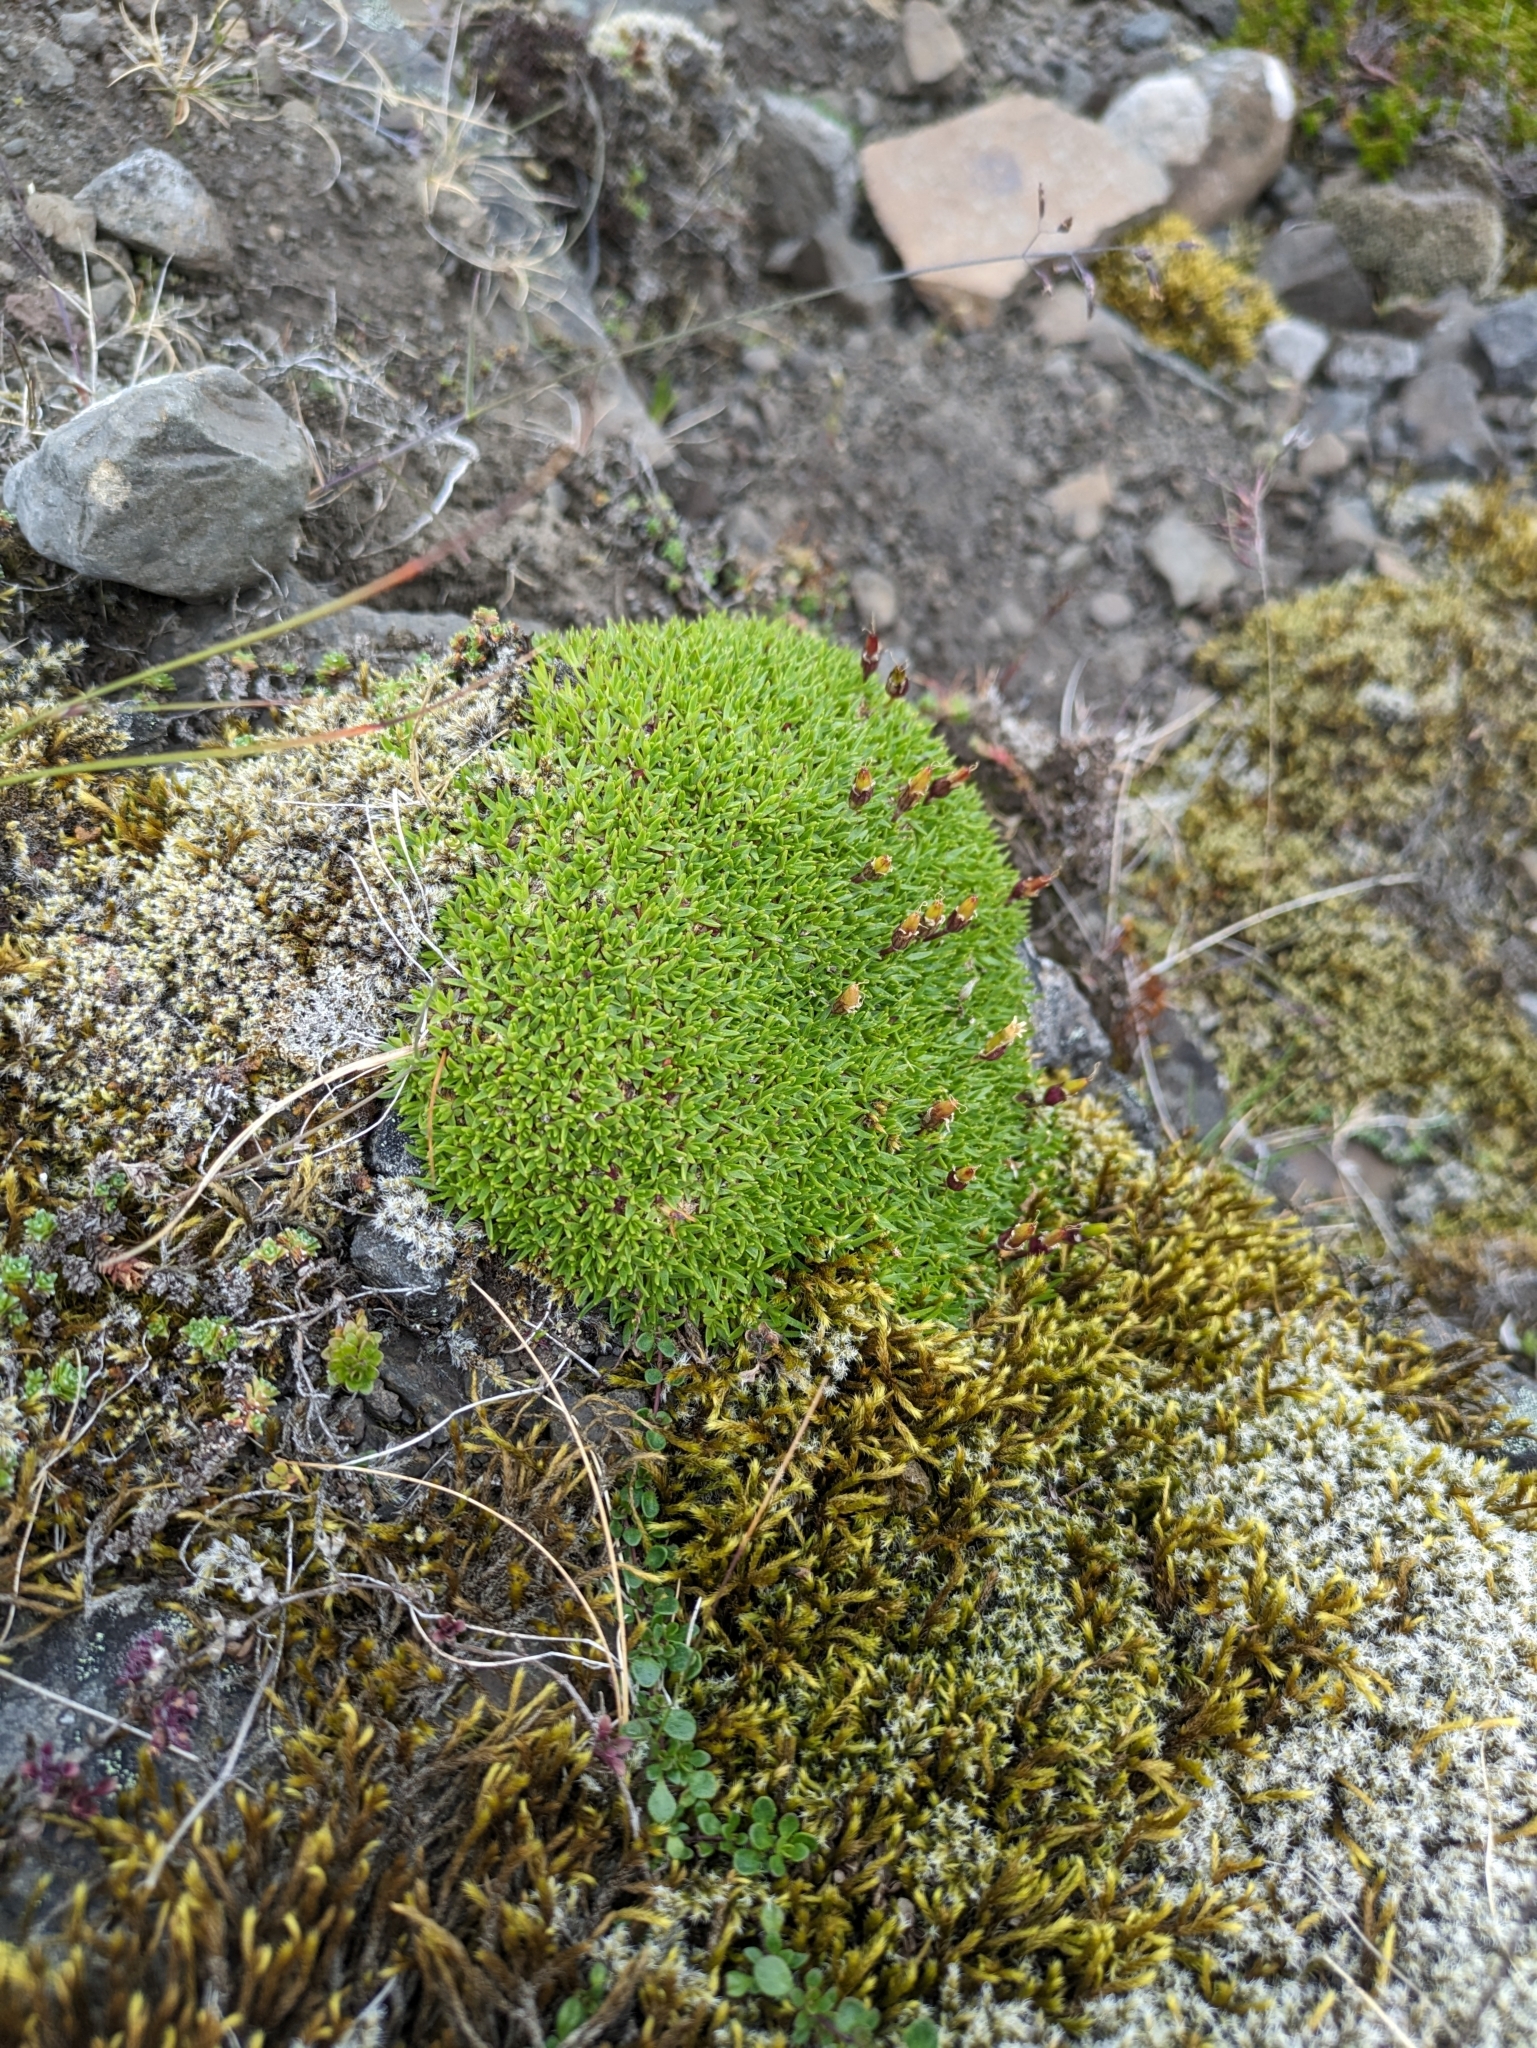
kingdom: Plantae
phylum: Tracheophyta
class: Magnoliopsida
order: Caryophyllales
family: Caryophyllaceae
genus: Silene
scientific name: Silene acaulis
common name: Moss campion
